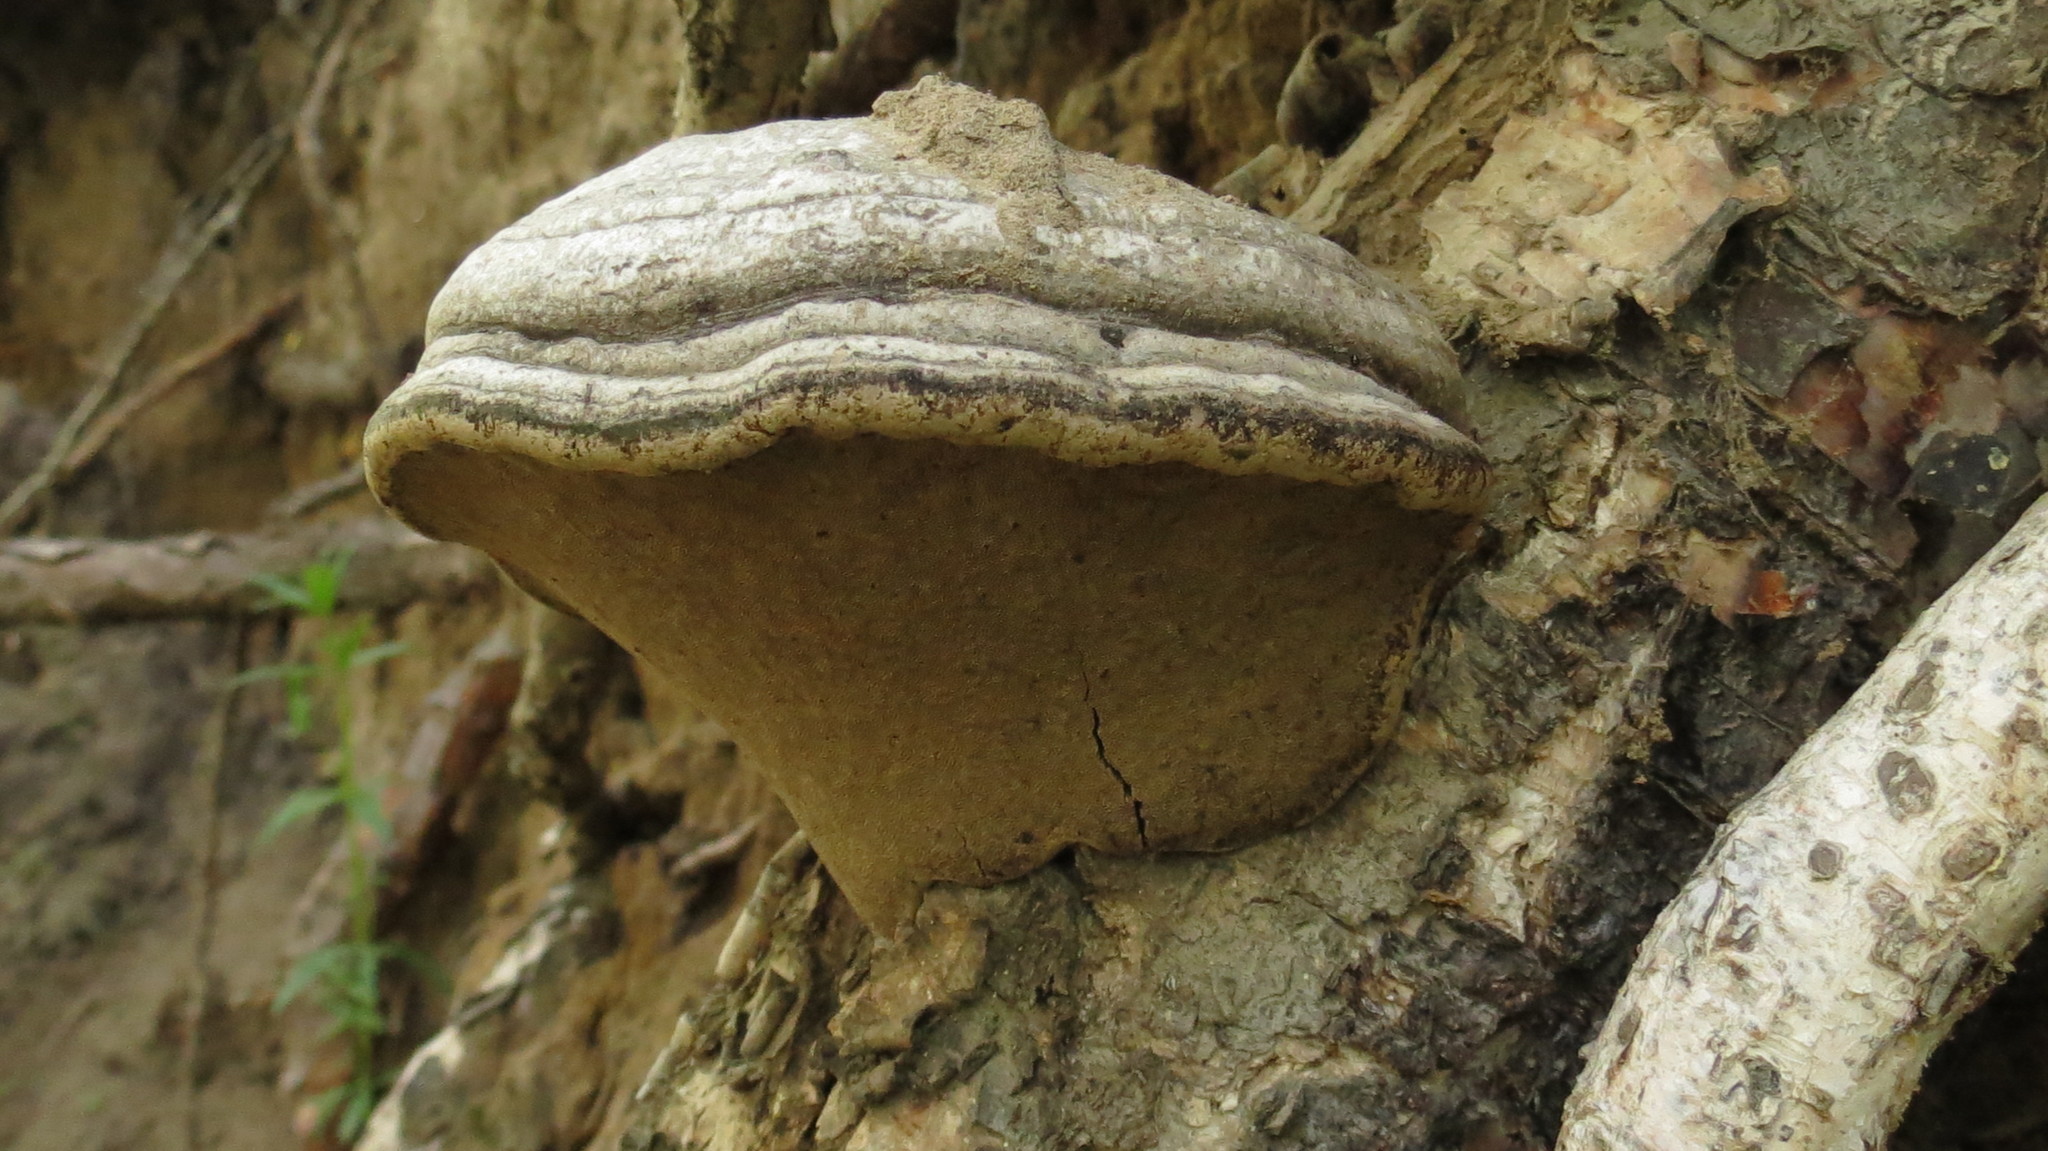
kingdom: Fungi
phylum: Basidiomycota
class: Agaricomycetes
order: Polyporales
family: Polyporaceae
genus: Fomes
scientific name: Fomes fomentarius
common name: Hoof fungus
